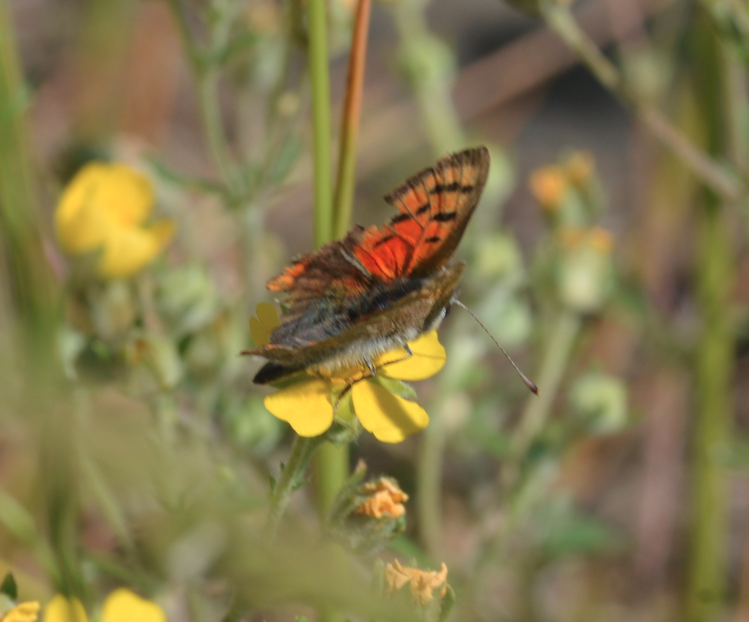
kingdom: Animalia
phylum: Arthropoda
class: Insecta
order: Lepidoptera
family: Lycaenidae
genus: Lycaena
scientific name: Lycaena phlaeas
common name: Small copper
